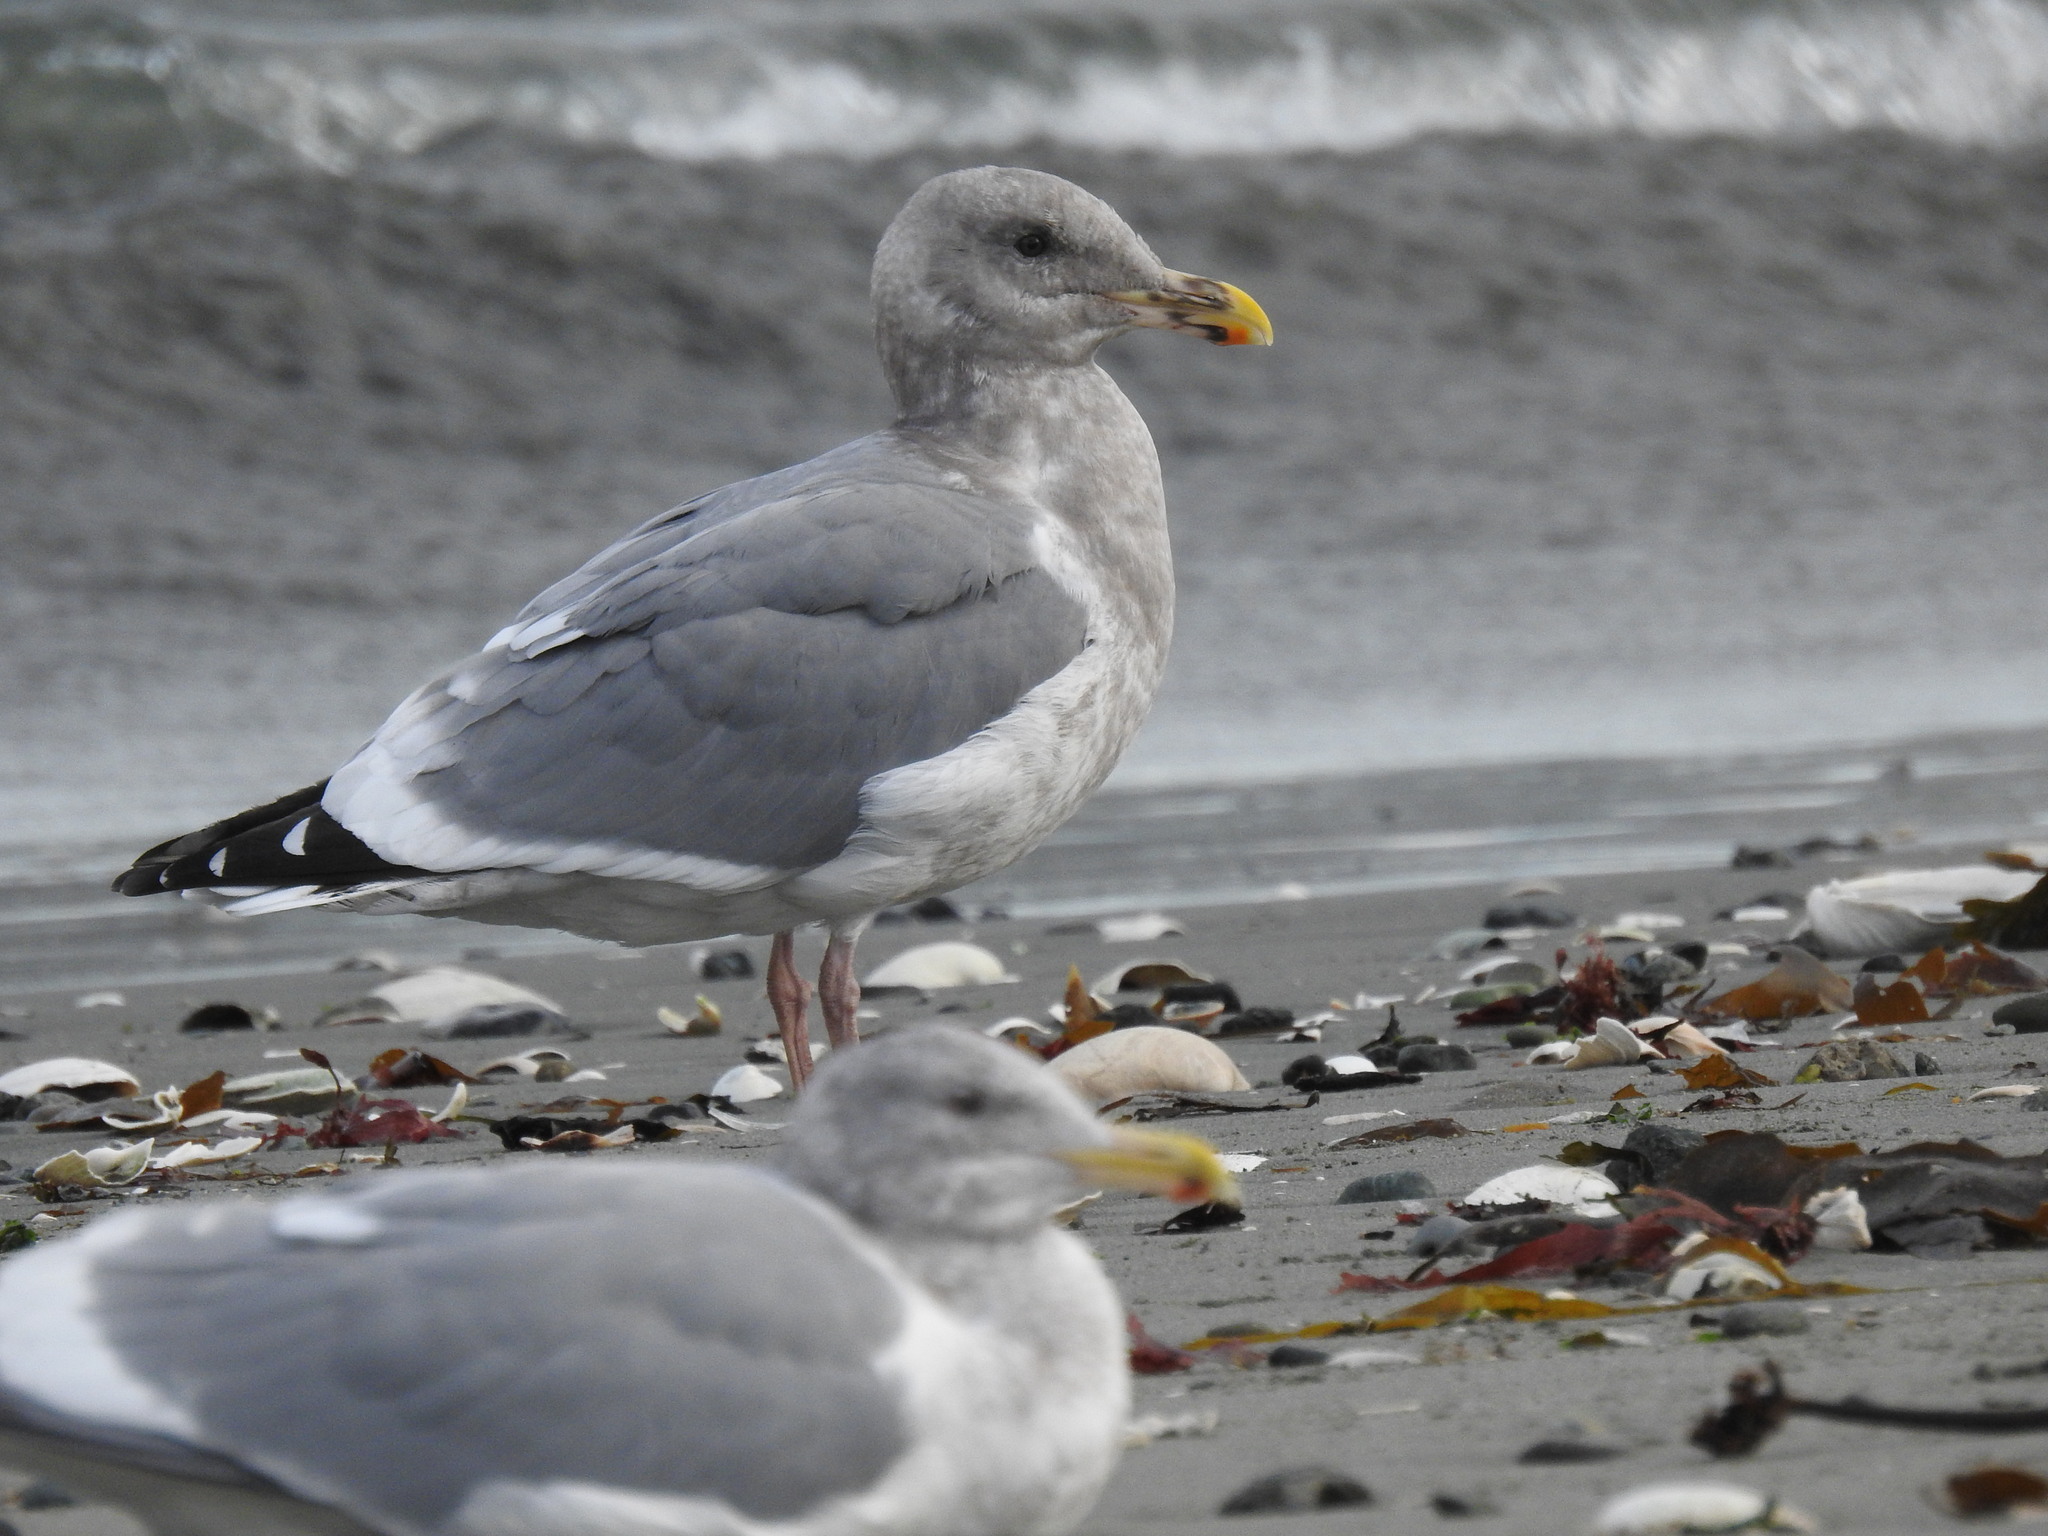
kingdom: Animalia
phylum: Chordata
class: Aves
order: Charadriiformes
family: Laridae
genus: Larus
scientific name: Larus
